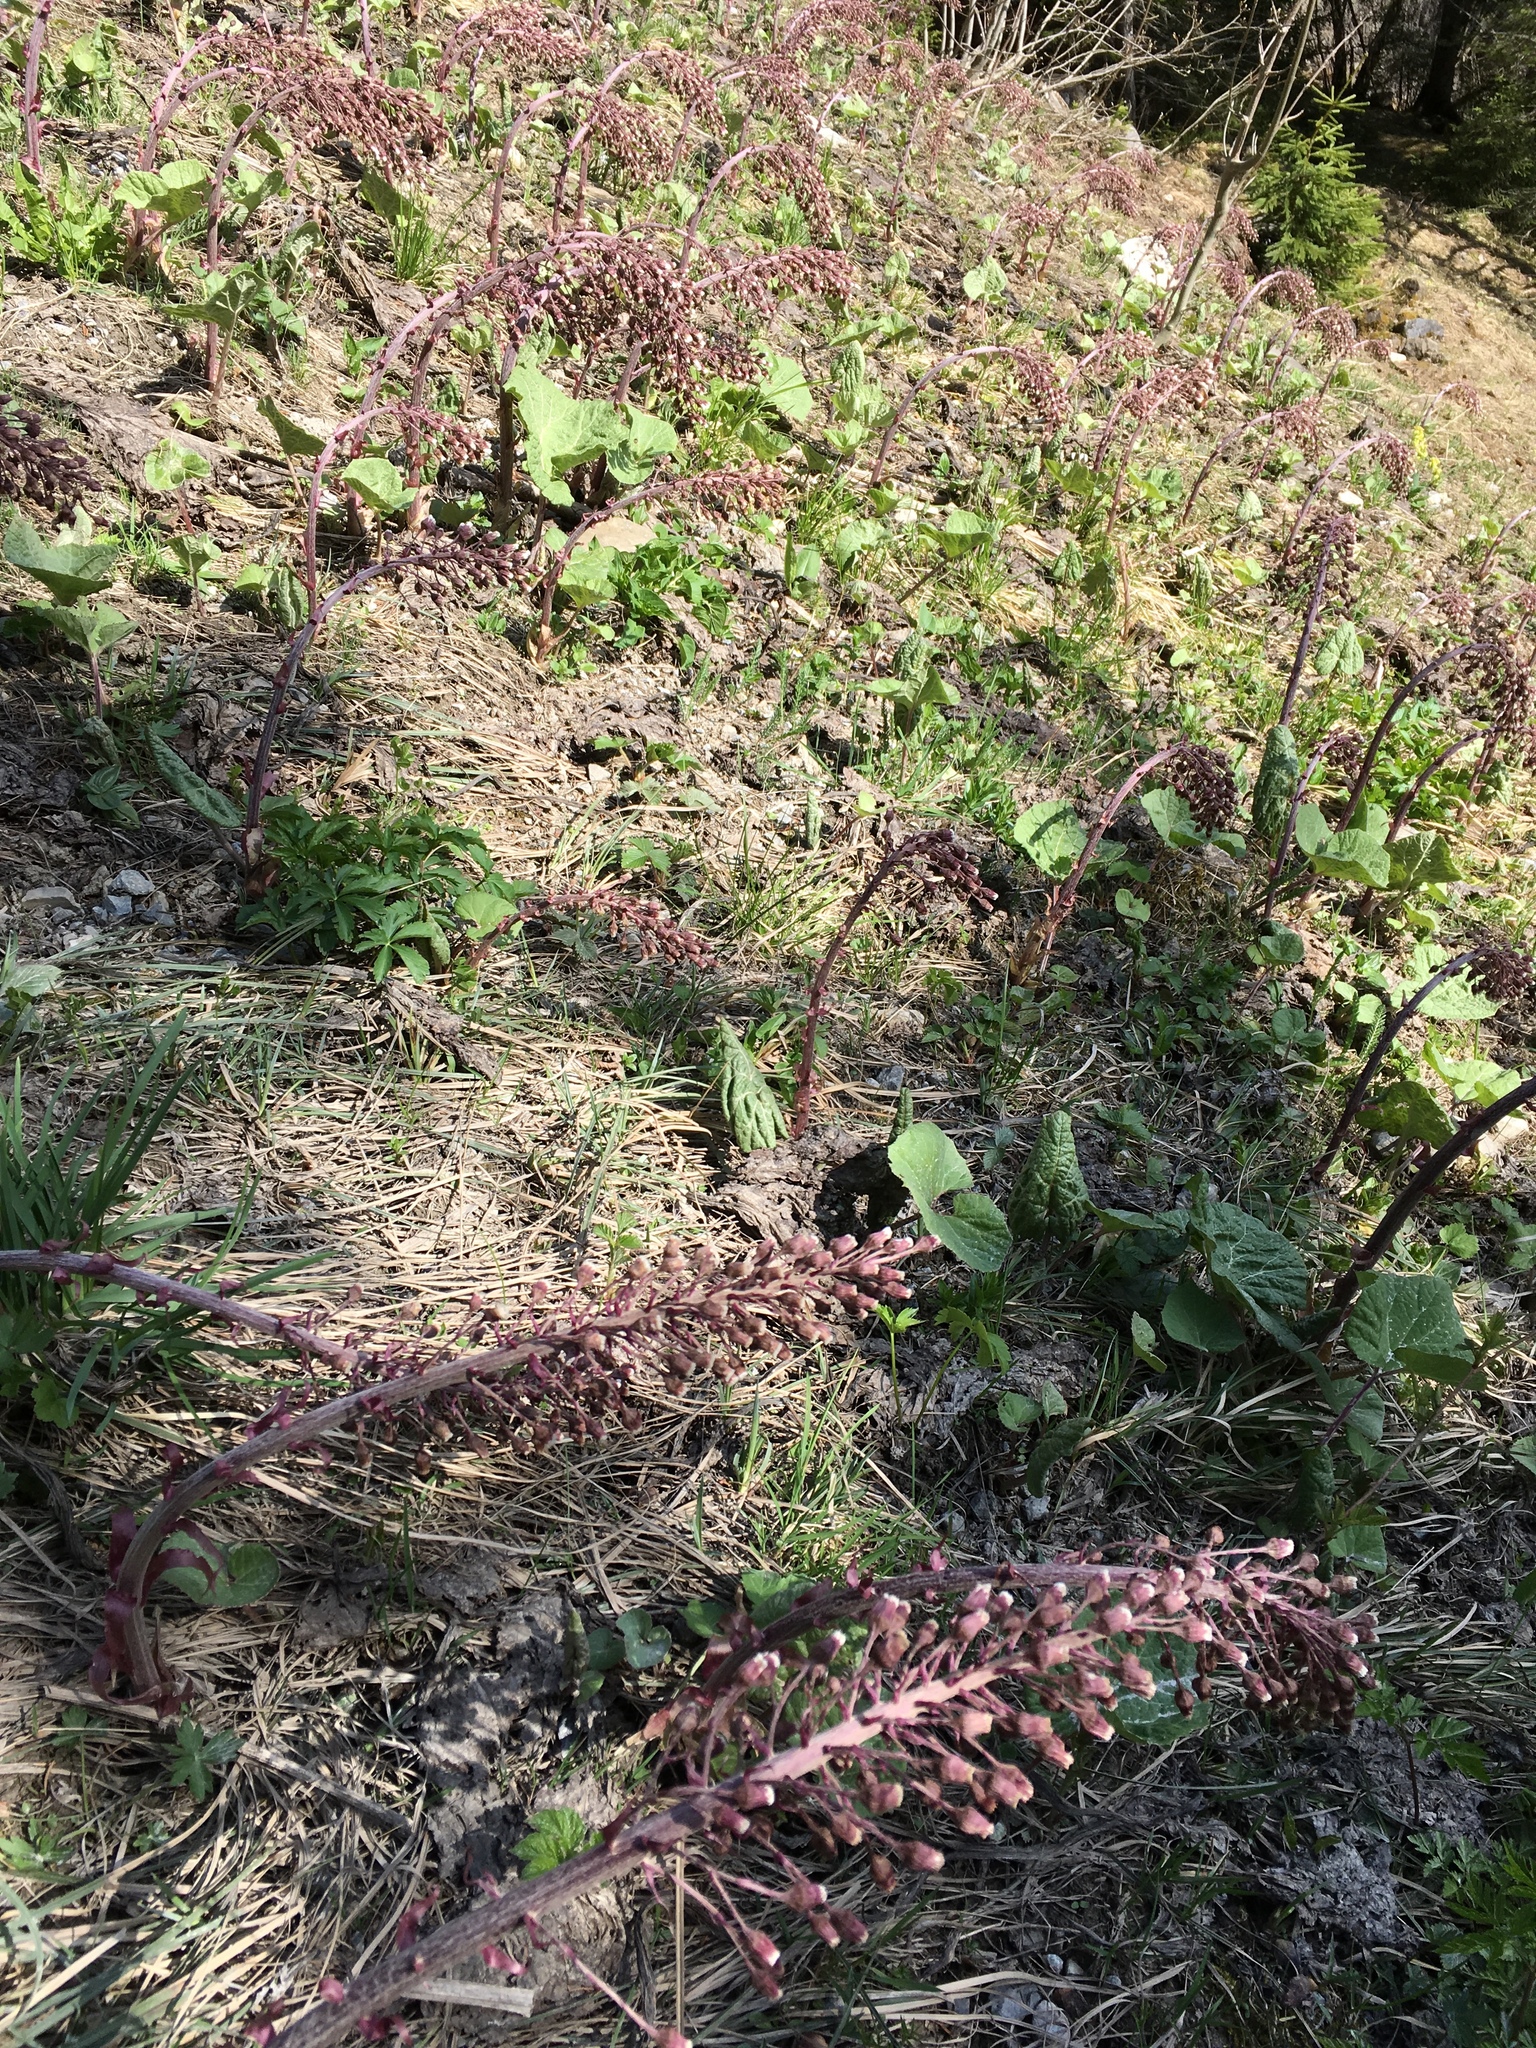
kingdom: Plantae
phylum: Tracheophyta
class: Magnoliopsida
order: Asterales
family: Asteraceae
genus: Petasites
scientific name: Petasites hybridus
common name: Butterbur
